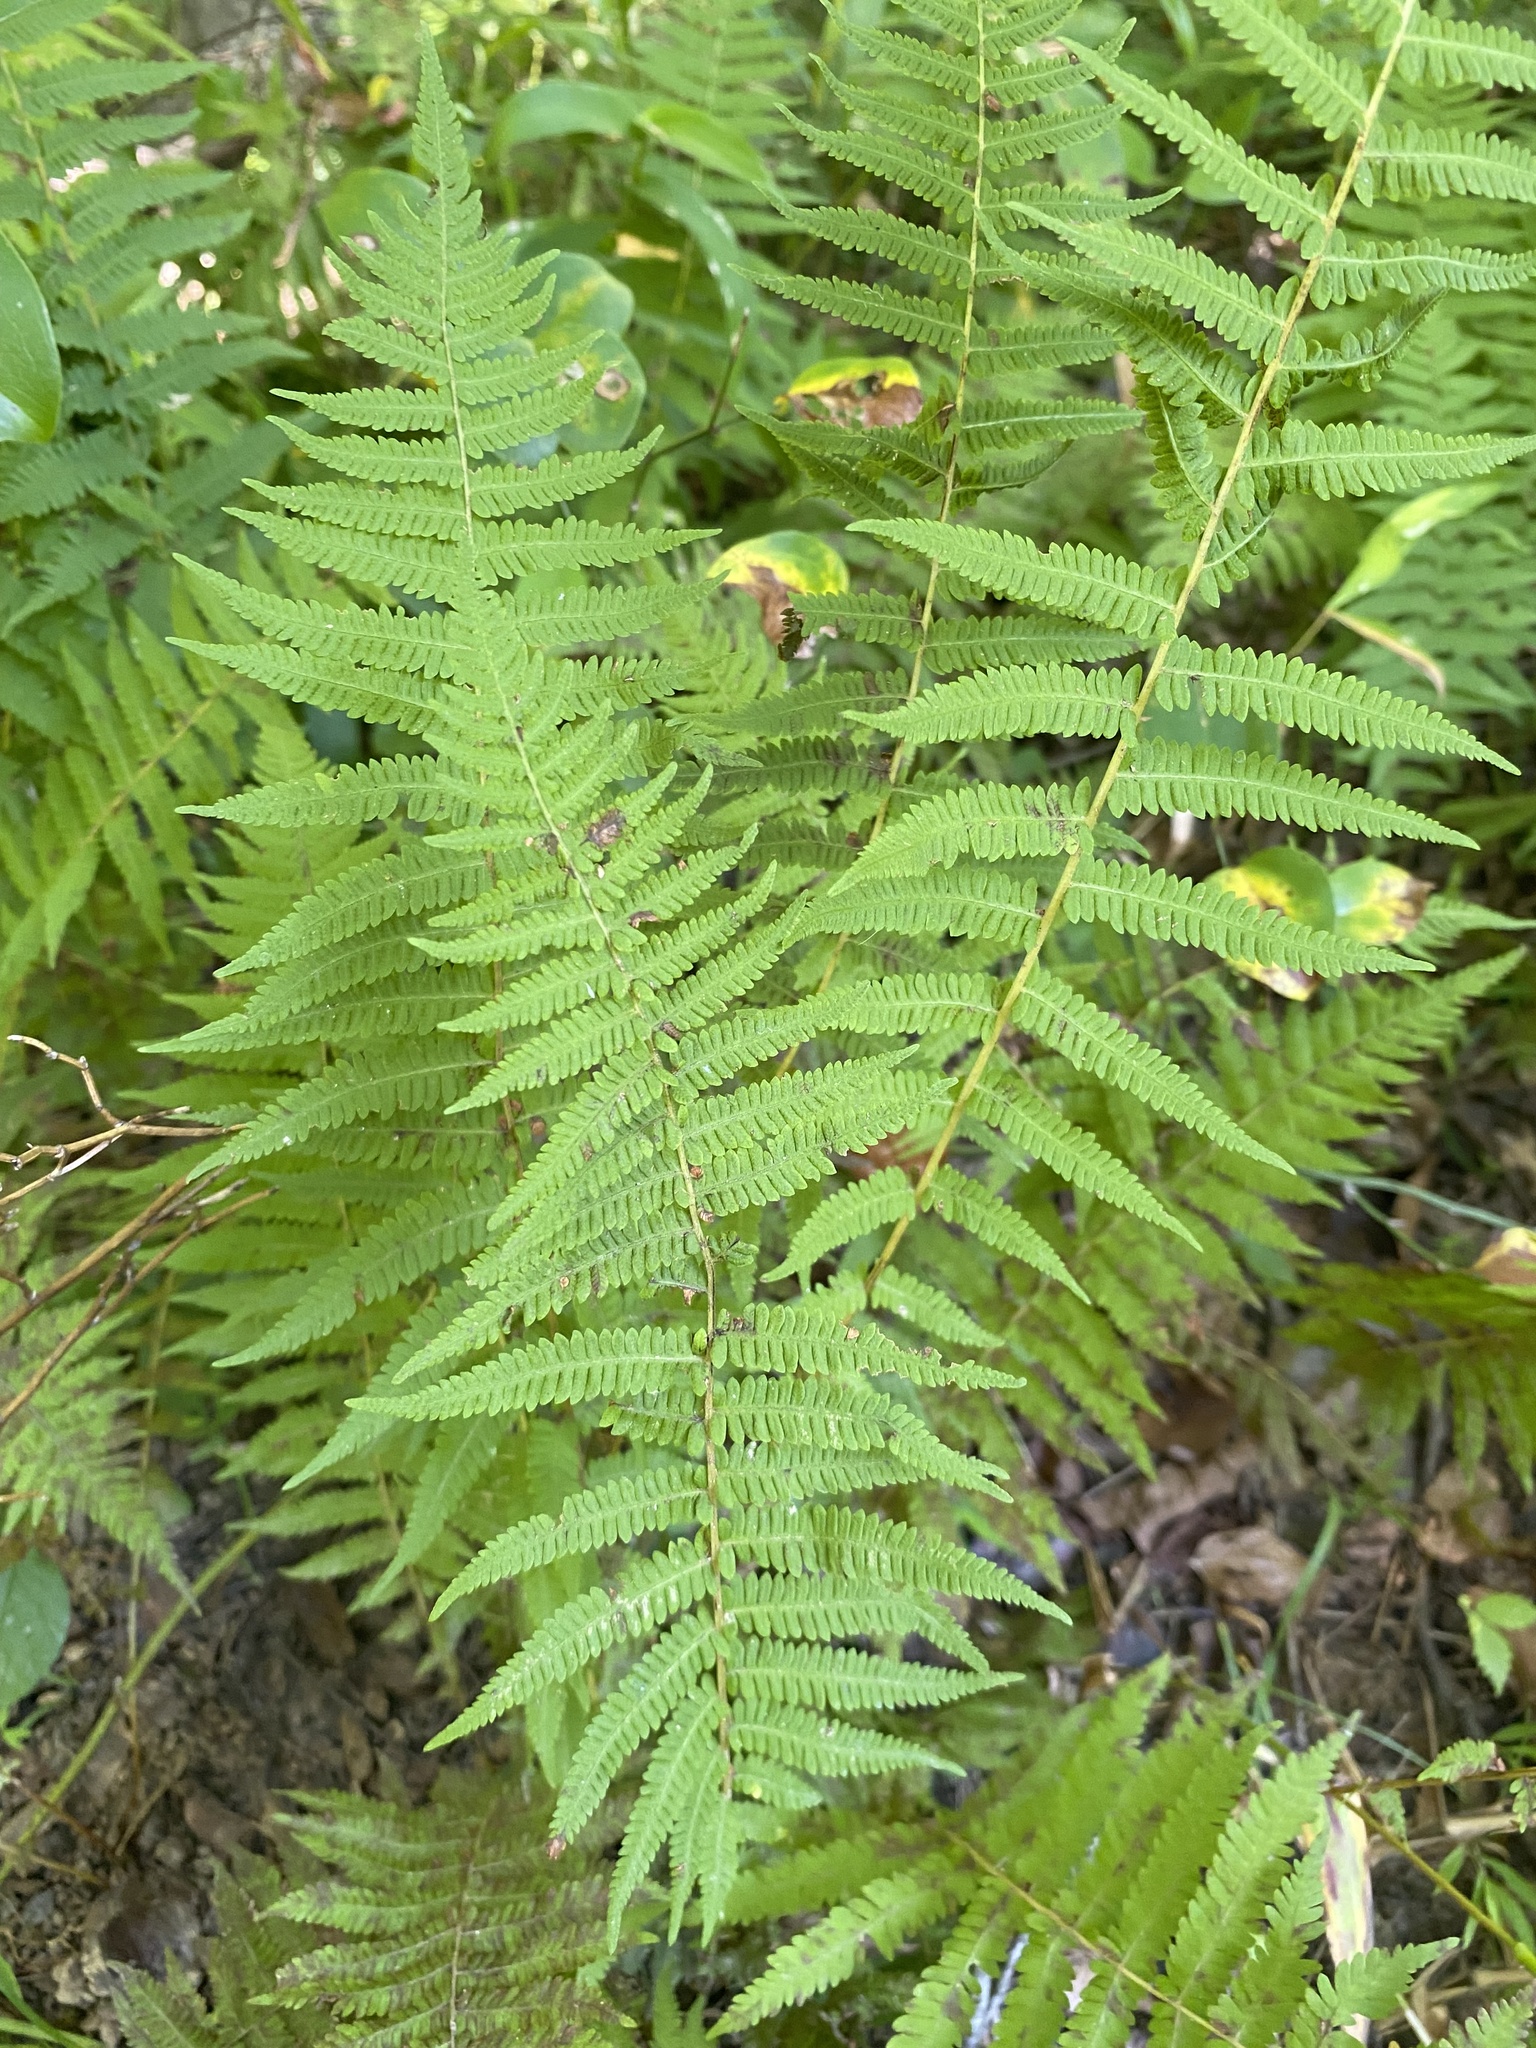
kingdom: Plantae
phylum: Tracheophyta
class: Polypodiopsida
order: Polypodiales
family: Thelypteridaceae
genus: Amauropelta
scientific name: Amauropelta noveboracensis
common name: New york fern
